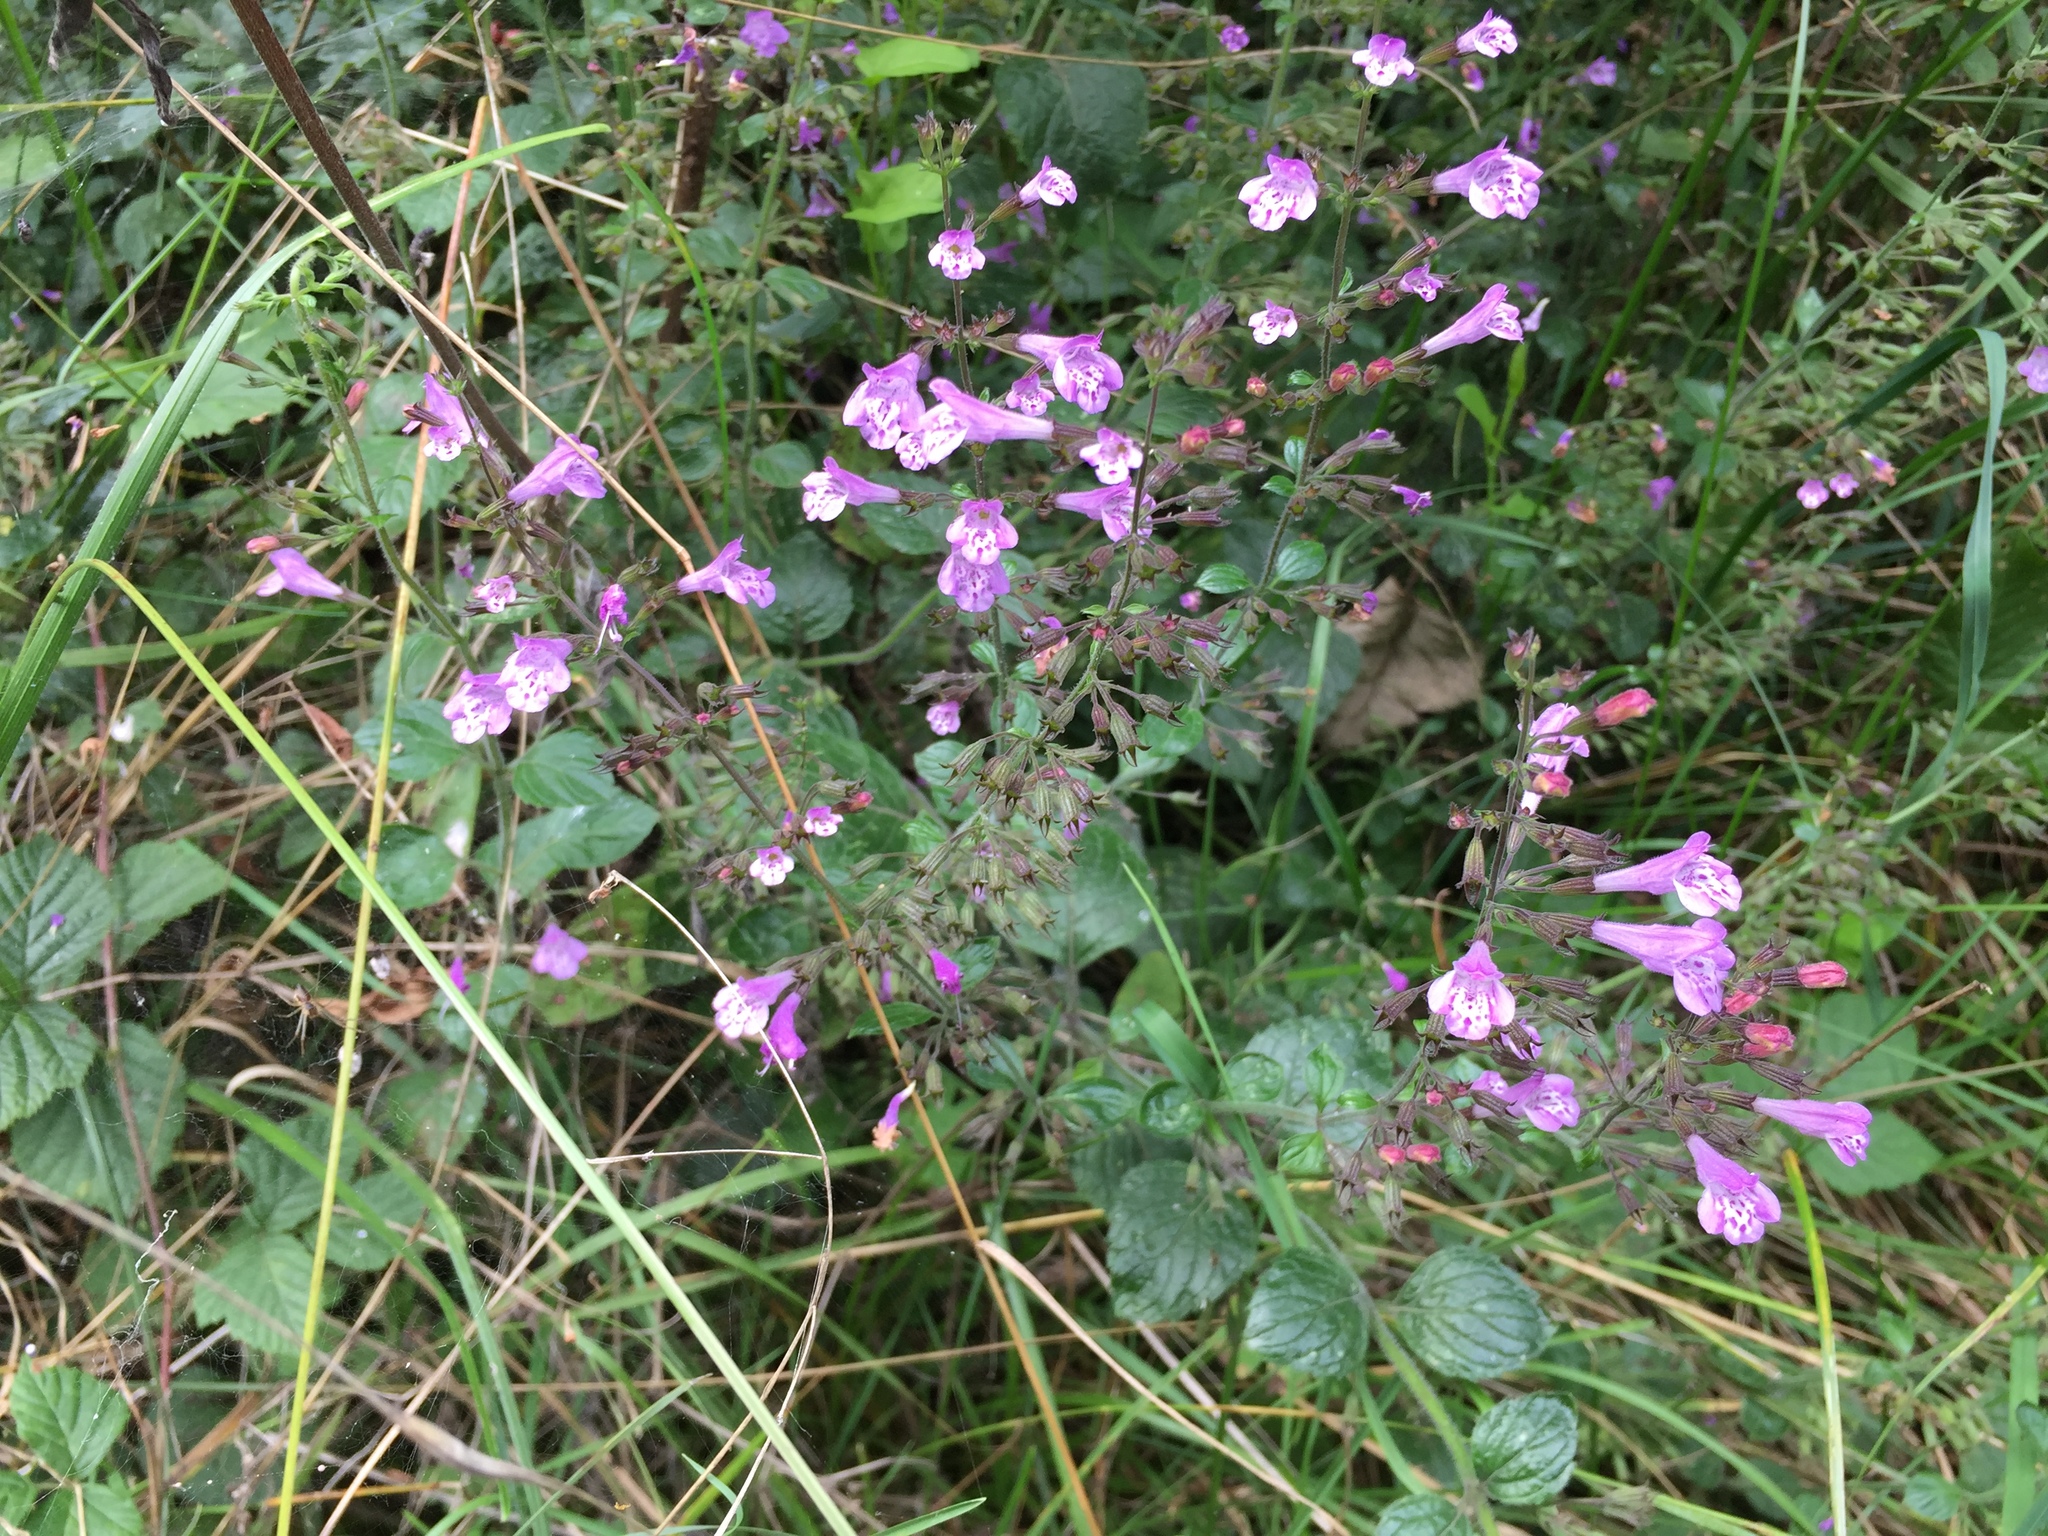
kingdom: Plantae
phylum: Tracheophyta
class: Magnoliopsida
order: Lamiales
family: Lamiaceae
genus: Clinopodium
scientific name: Clinopodium menthifolium
